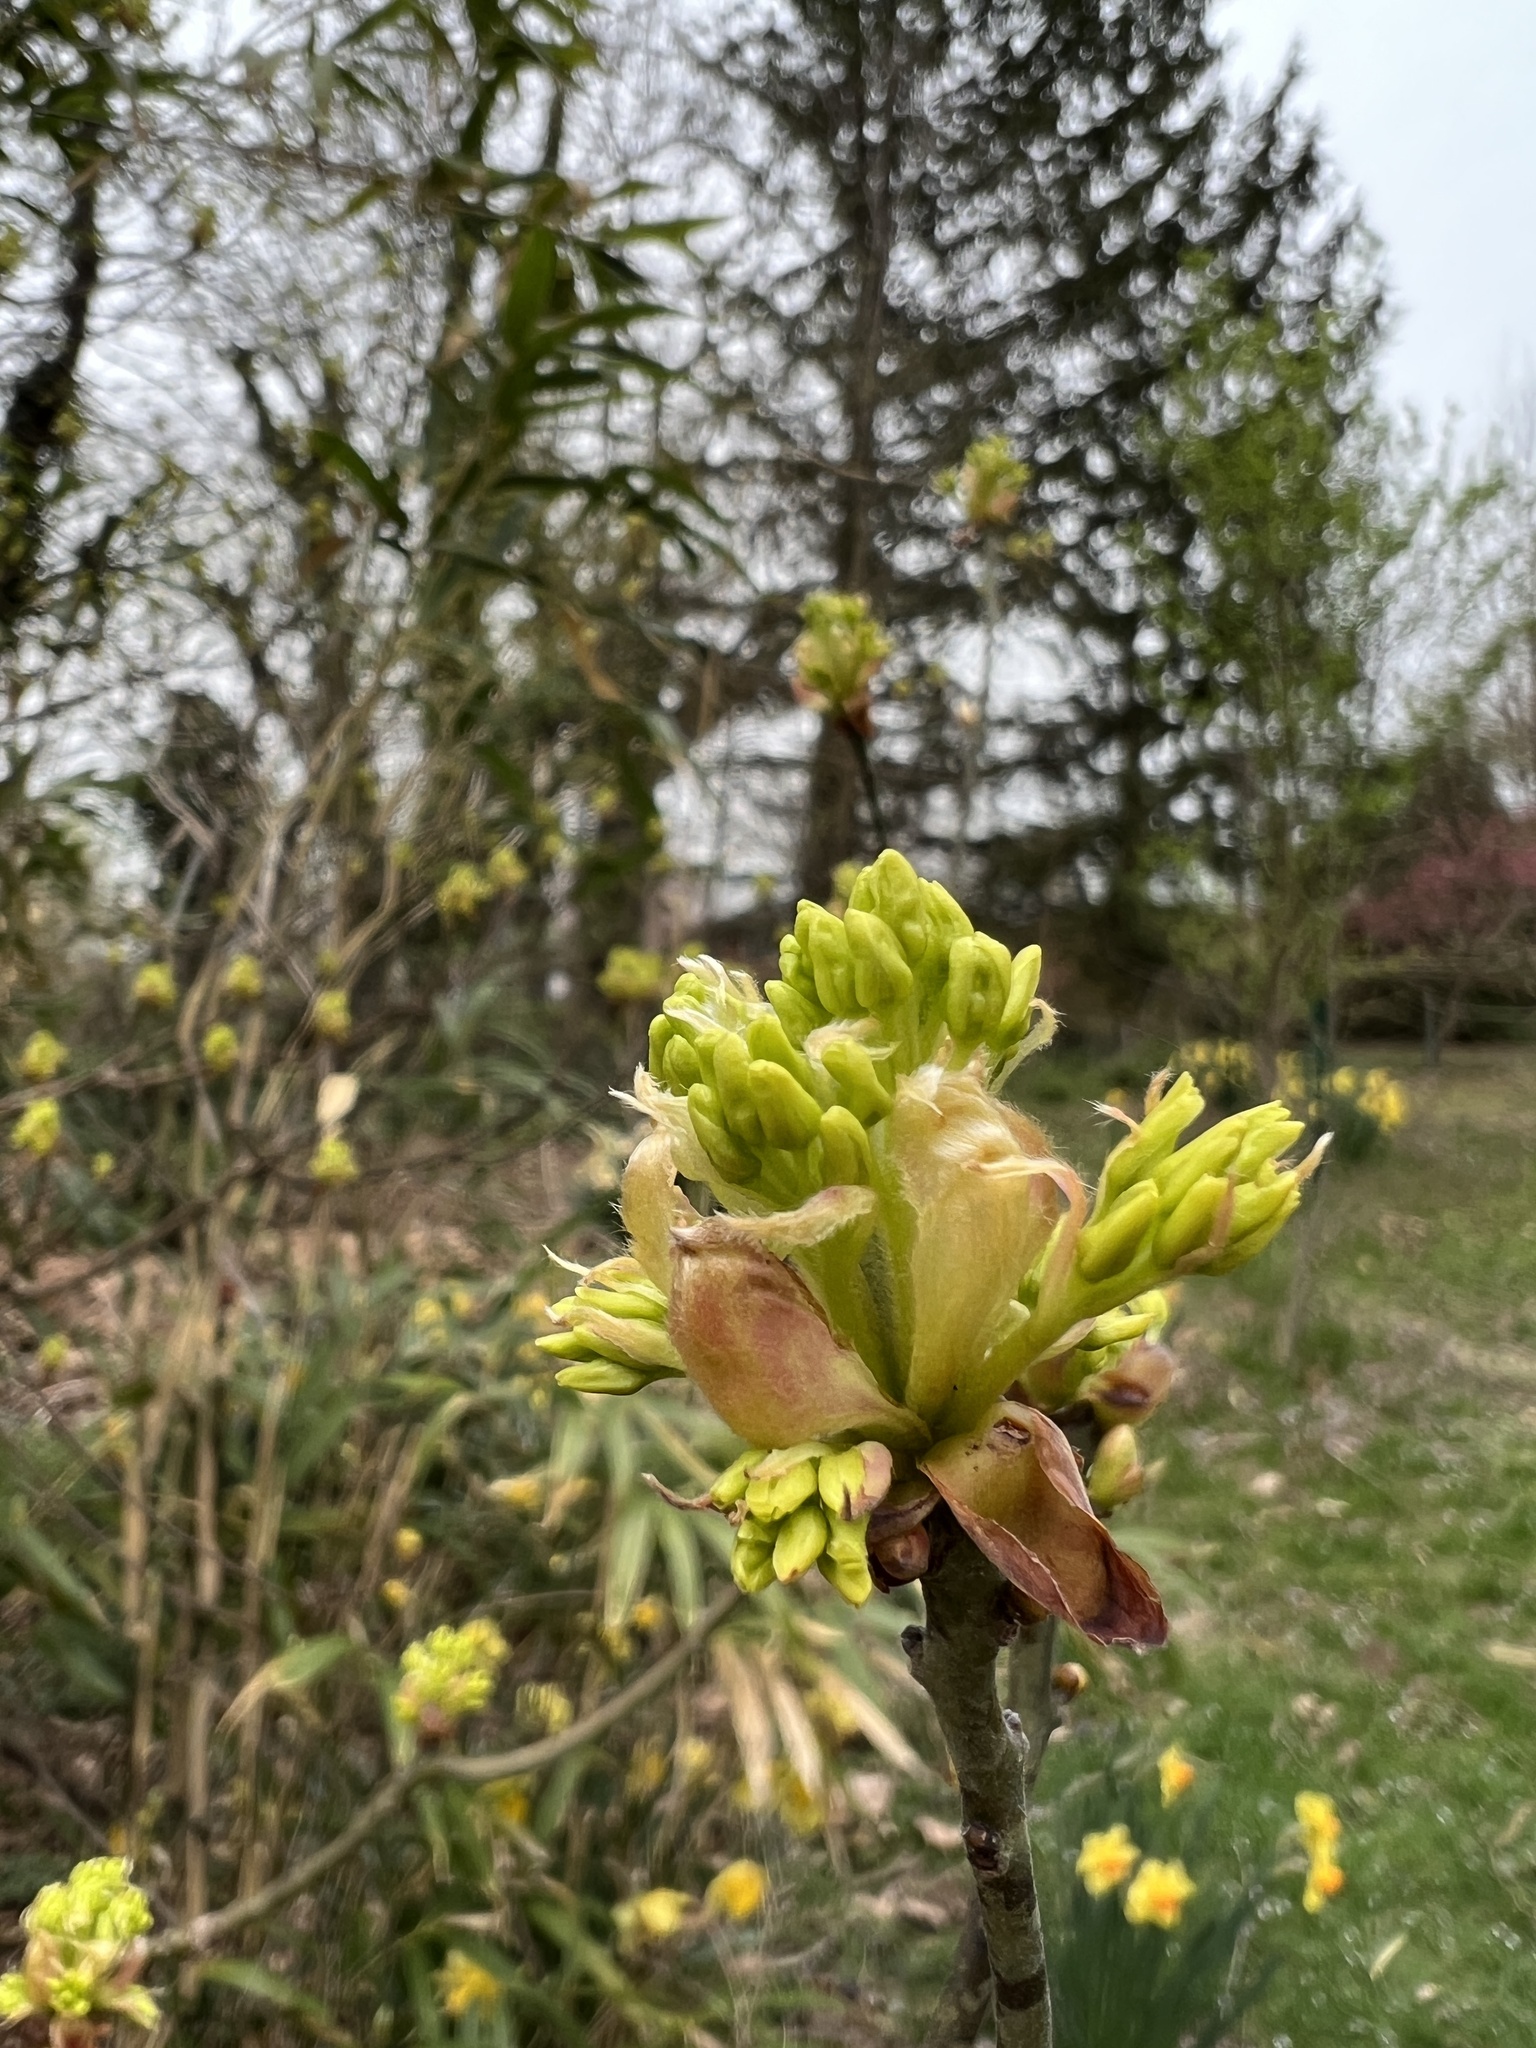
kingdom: Plantae
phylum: Tracheophyta
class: Magnoliopsida
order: Laurales
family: Lauraceae
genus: Sassafras
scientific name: Sassafras albidum
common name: Sassafras
